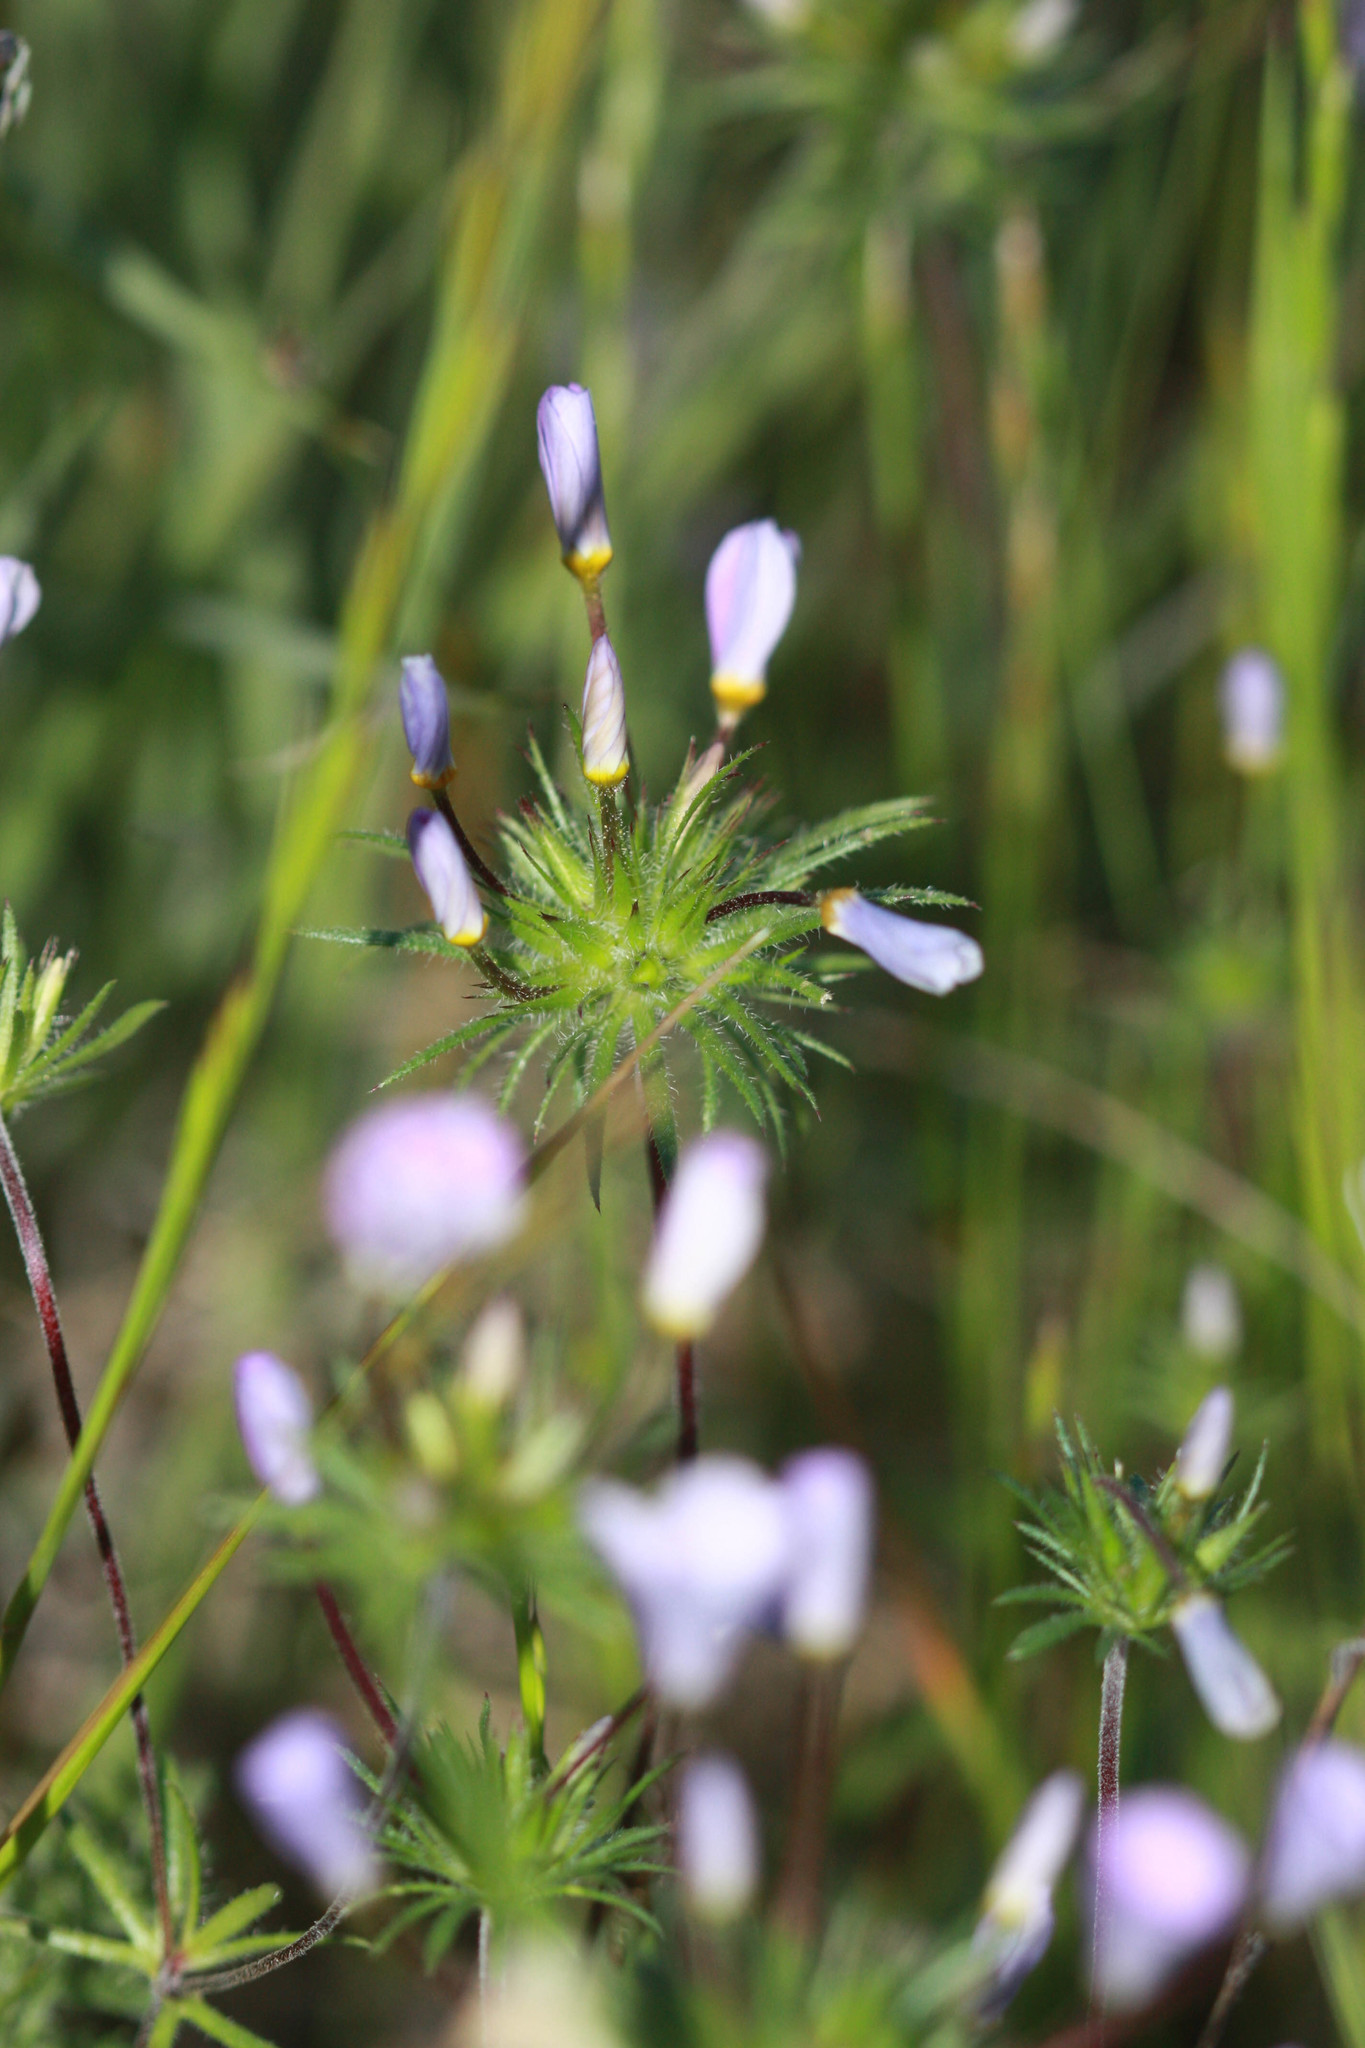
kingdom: Plantae
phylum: Tracheophyta
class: Magnoliopsida
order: Ericales
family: Polemoniaceae
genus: Leptosiphon
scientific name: Leptosiphon androsaceus
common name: False babystars
